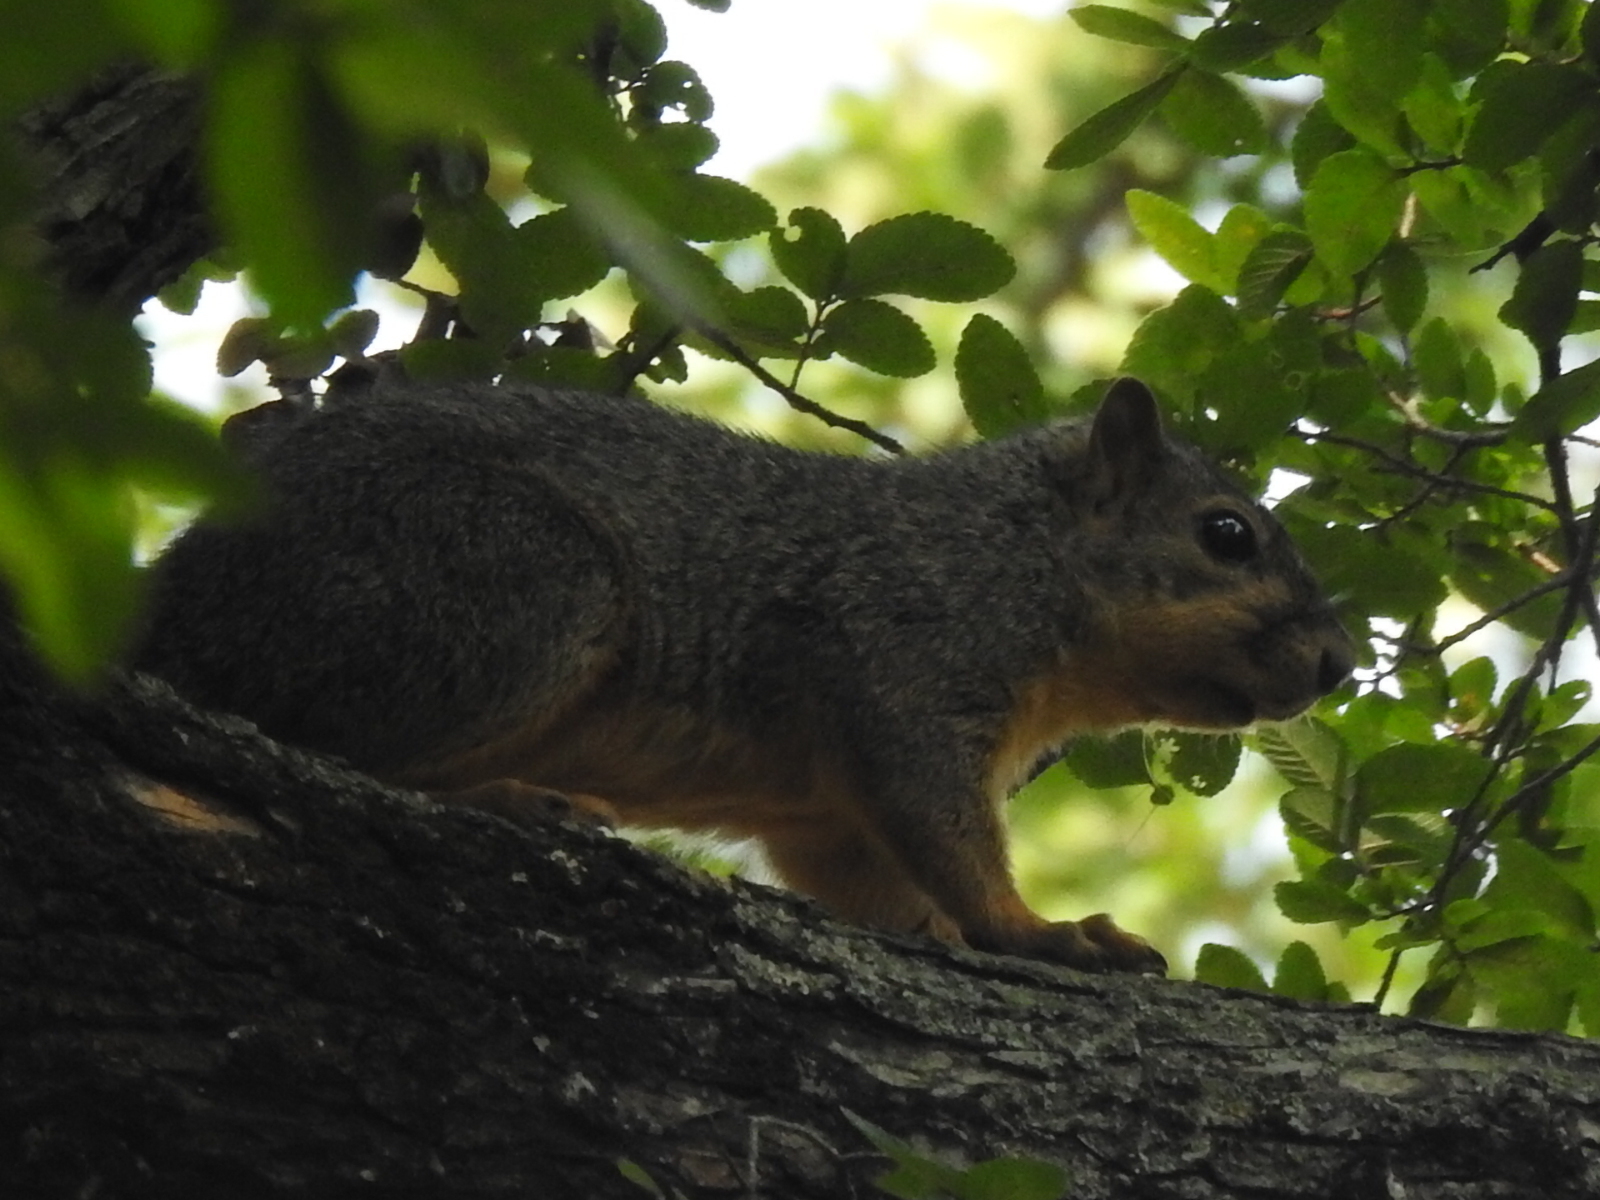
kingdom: Animalia
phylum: Chordata
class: Mammalia
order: Rodentia
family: Sciuridae
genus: Sciurus
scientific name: Sciurus niger
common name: Fox squirrel
